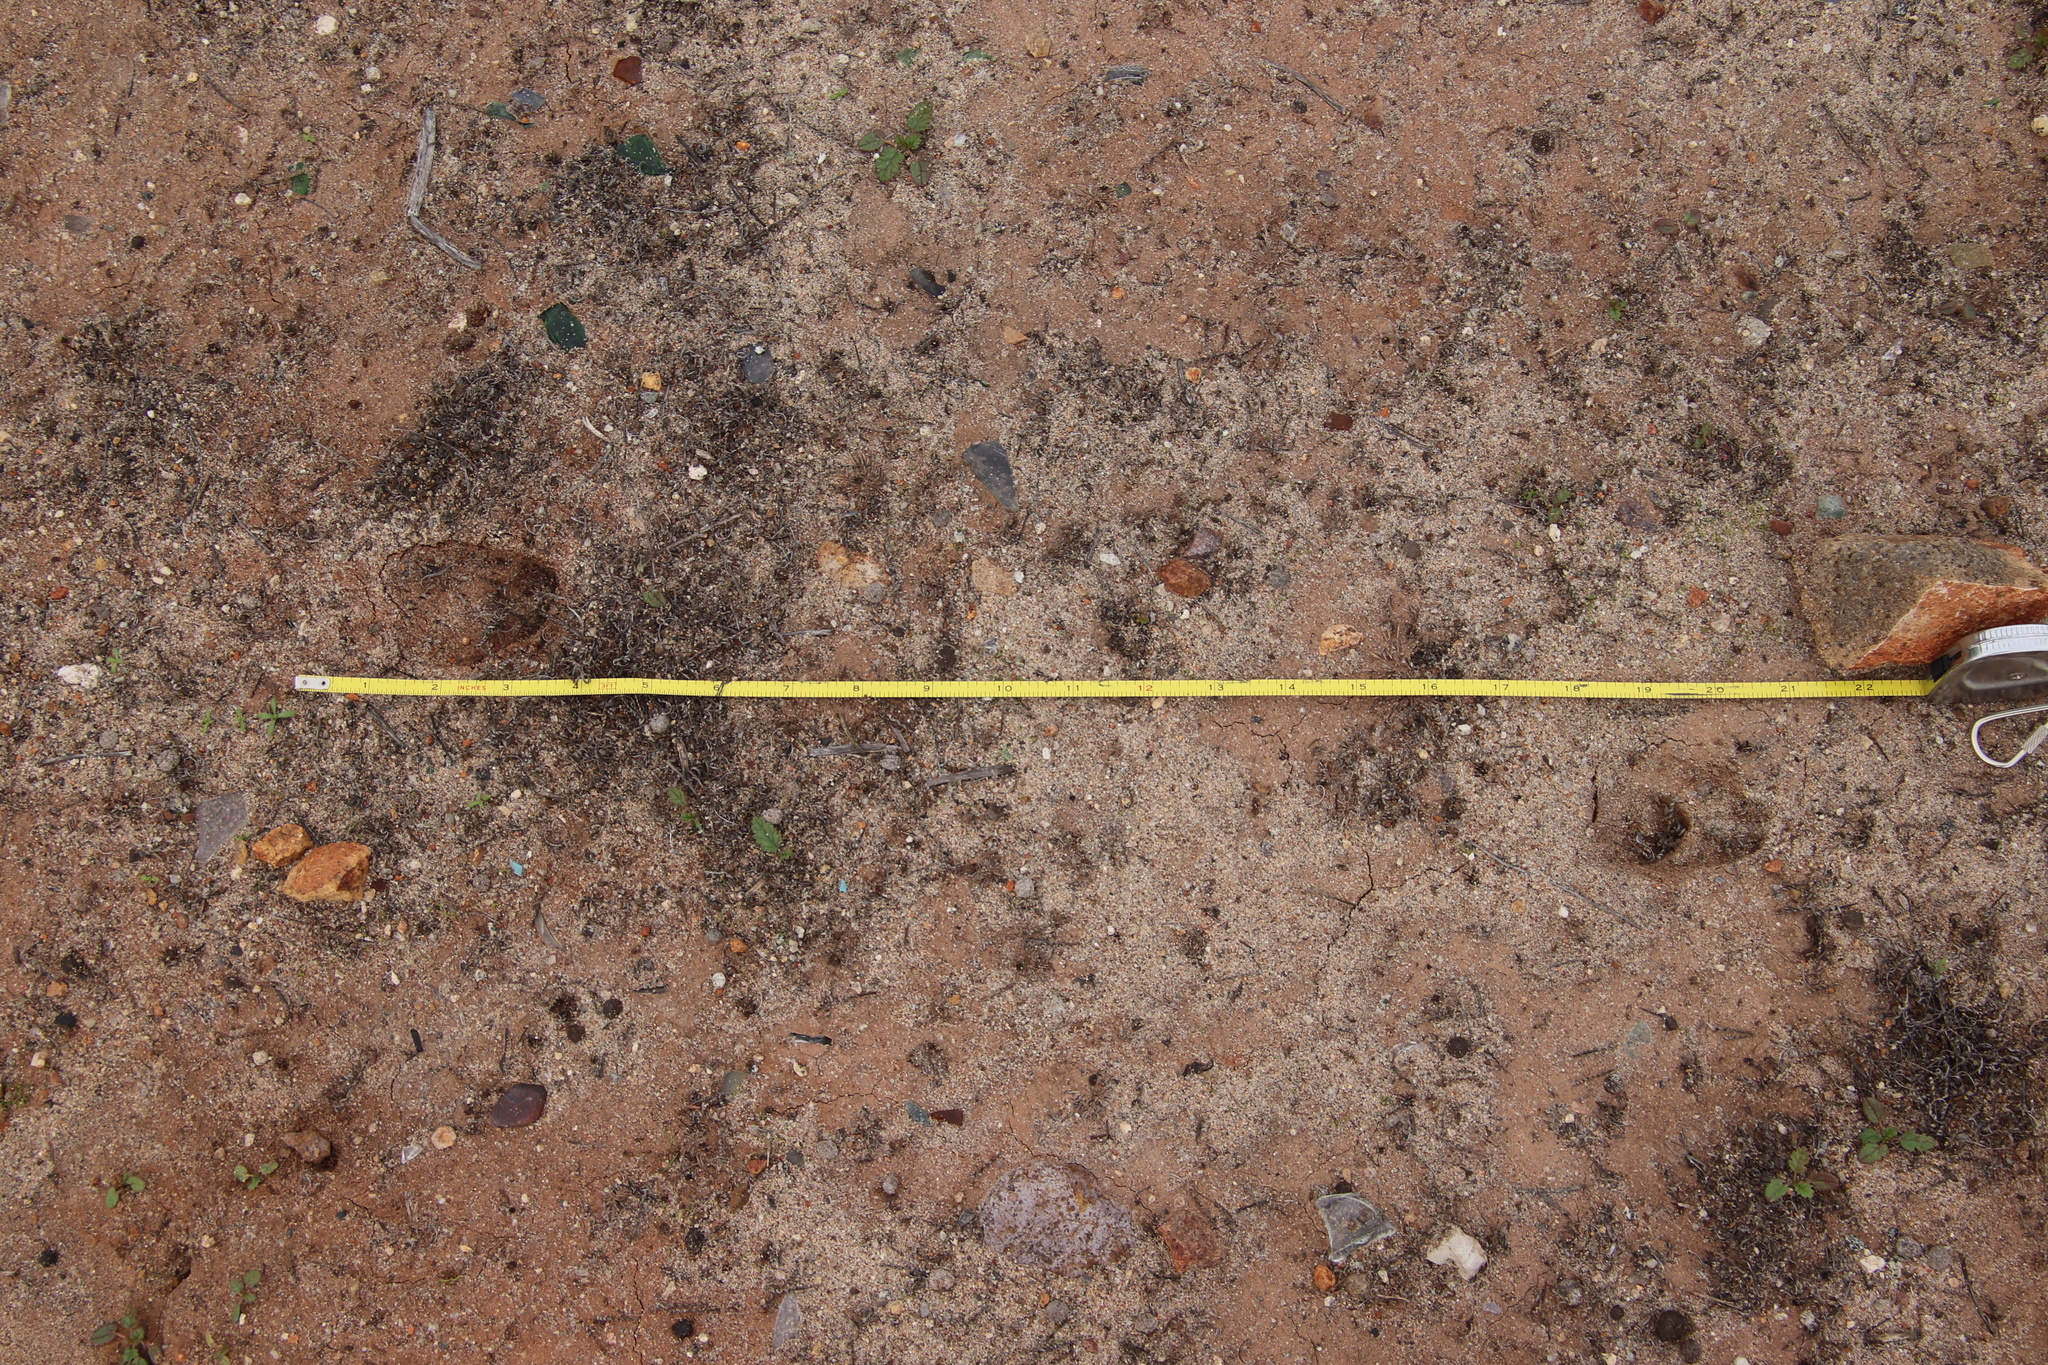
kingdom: Animalia
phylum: Chordata
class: Mammalia
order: Artiodactyla
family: Cervidae
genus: Odocoileus
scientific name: Odocoileus hemionus
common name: Mule deer
